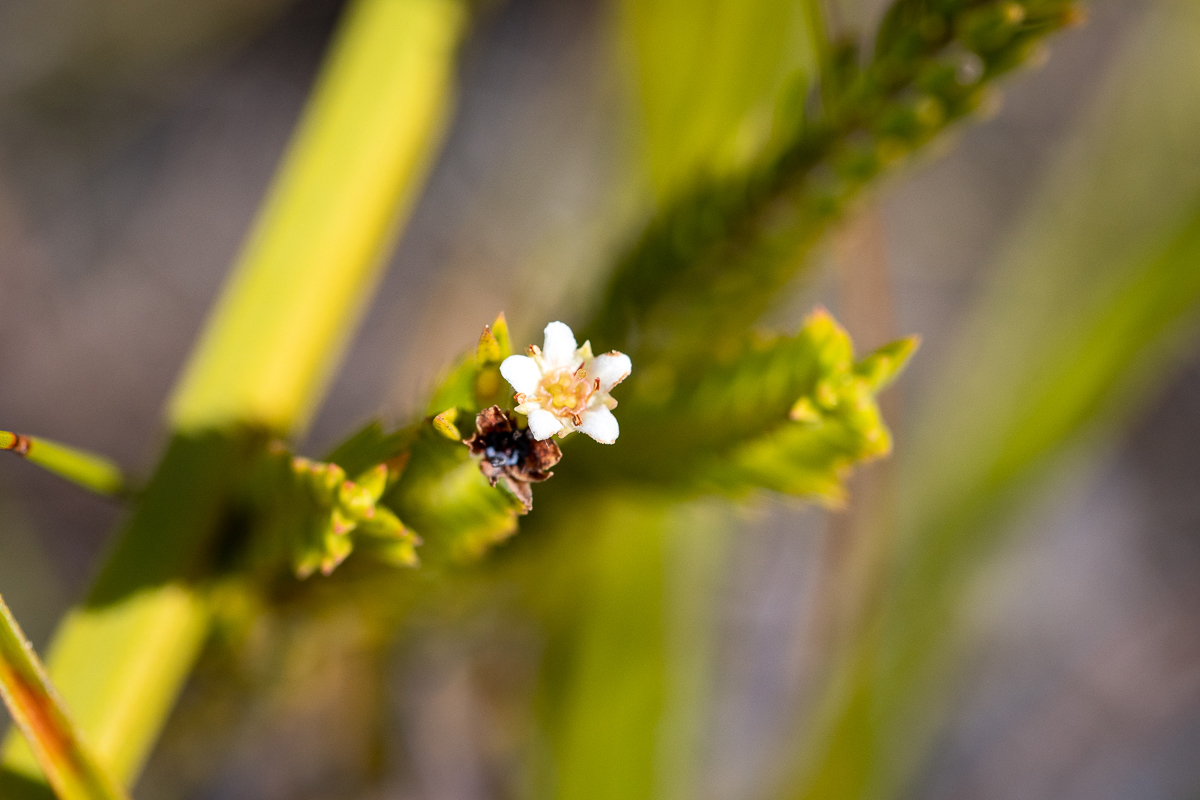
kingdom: Plantae
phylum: Tracheophyta
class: Magnoliopsida
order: Sapindales
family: Rutaceae
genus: Diosma
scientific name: Diosma oppositifolia
